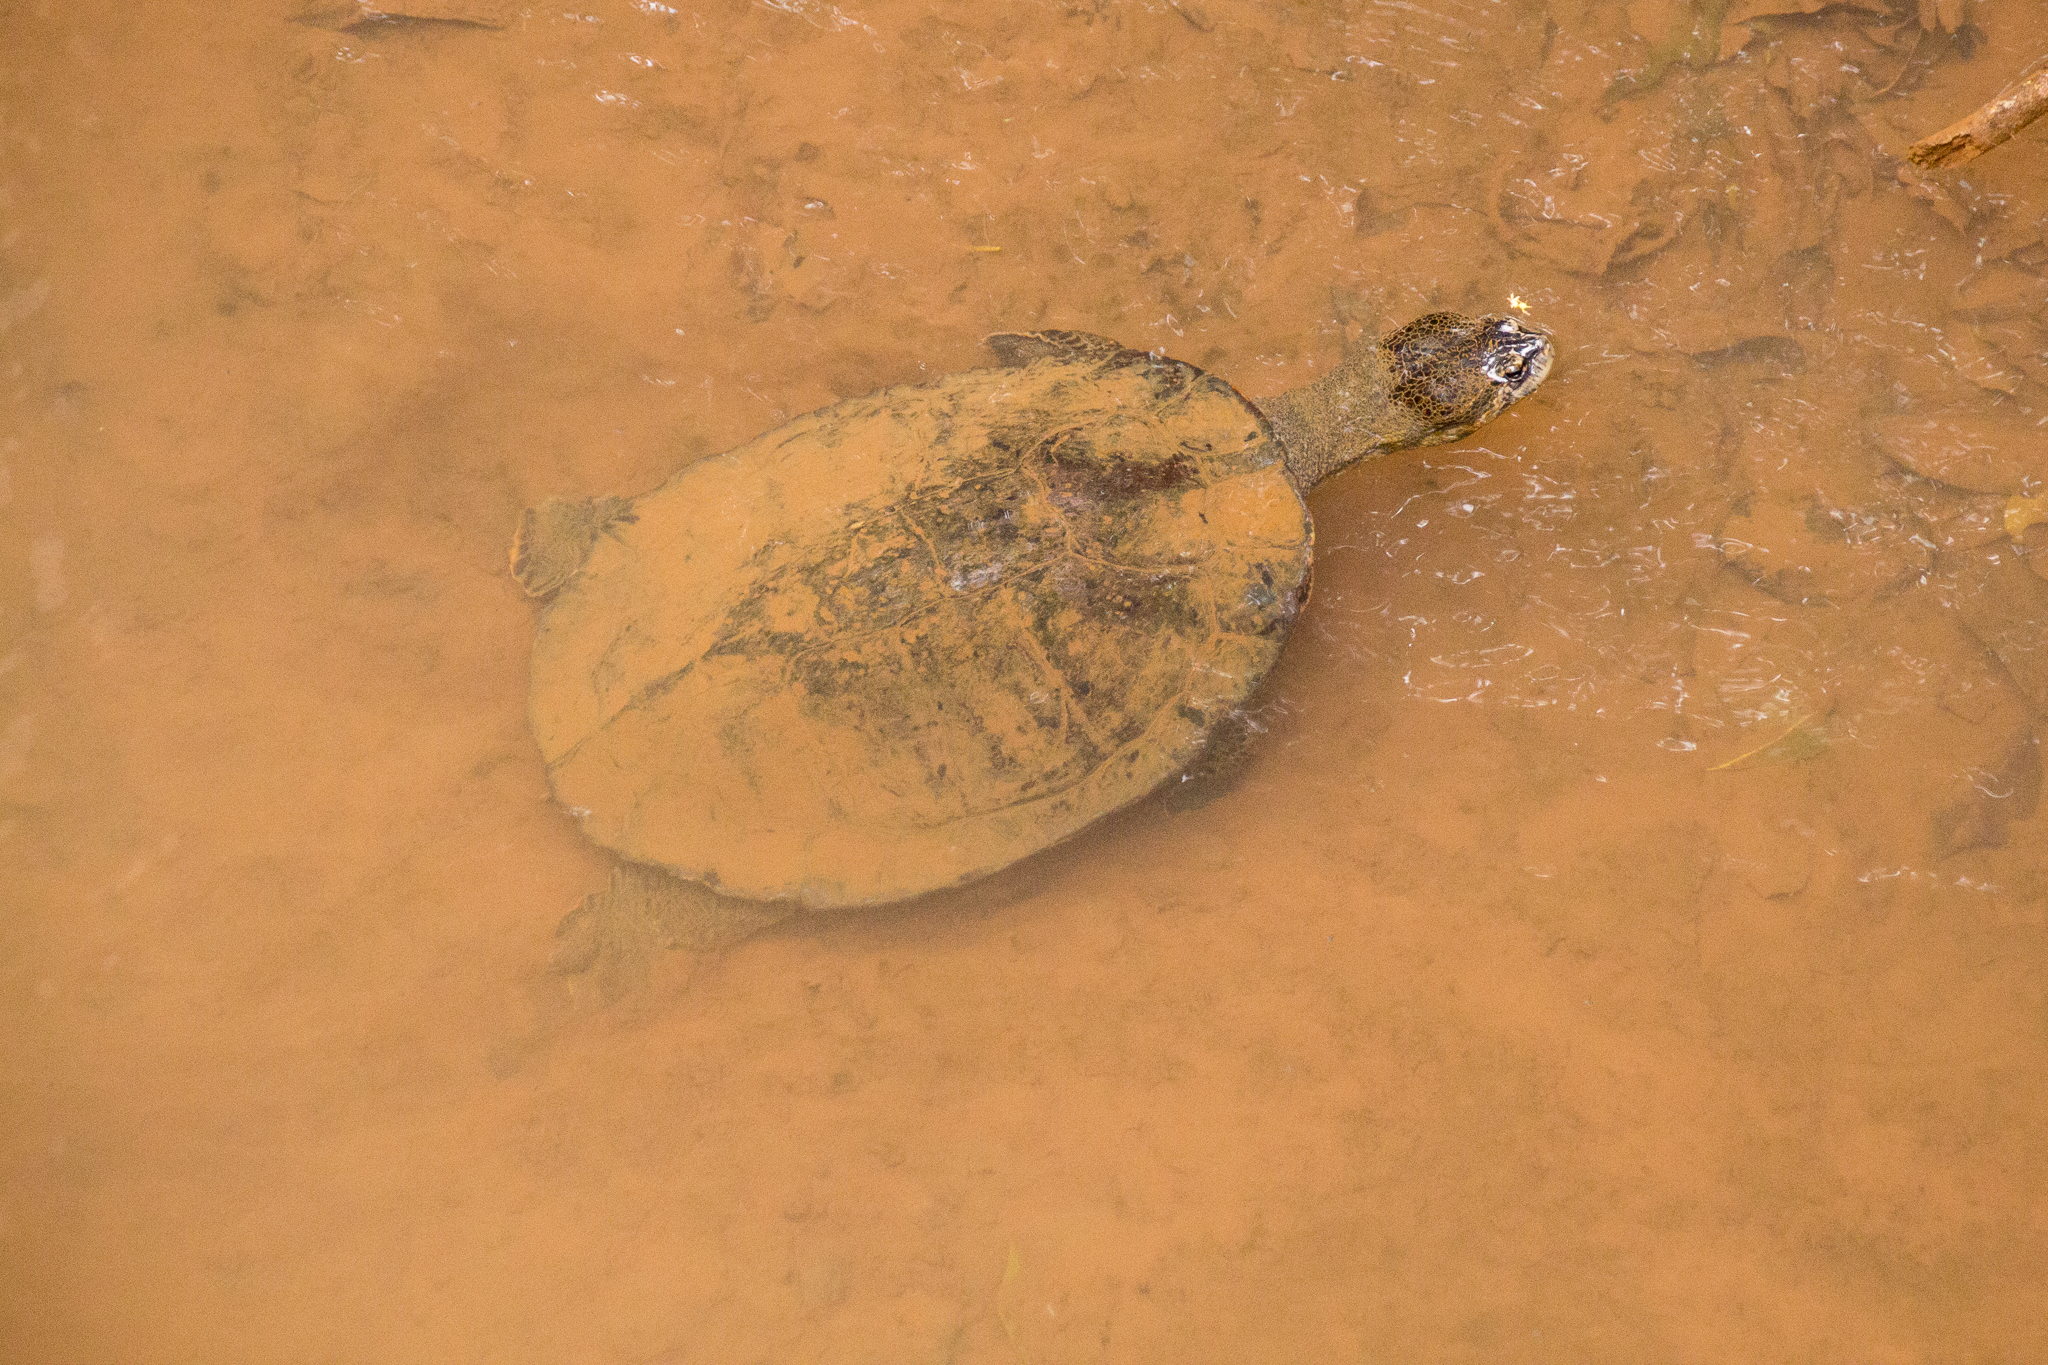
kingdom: Animalia
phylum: Chordata
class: Testudines
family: Chelidae
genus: Phrynops
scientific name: Phrynops williamsi
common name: Williams side-necked turtle
